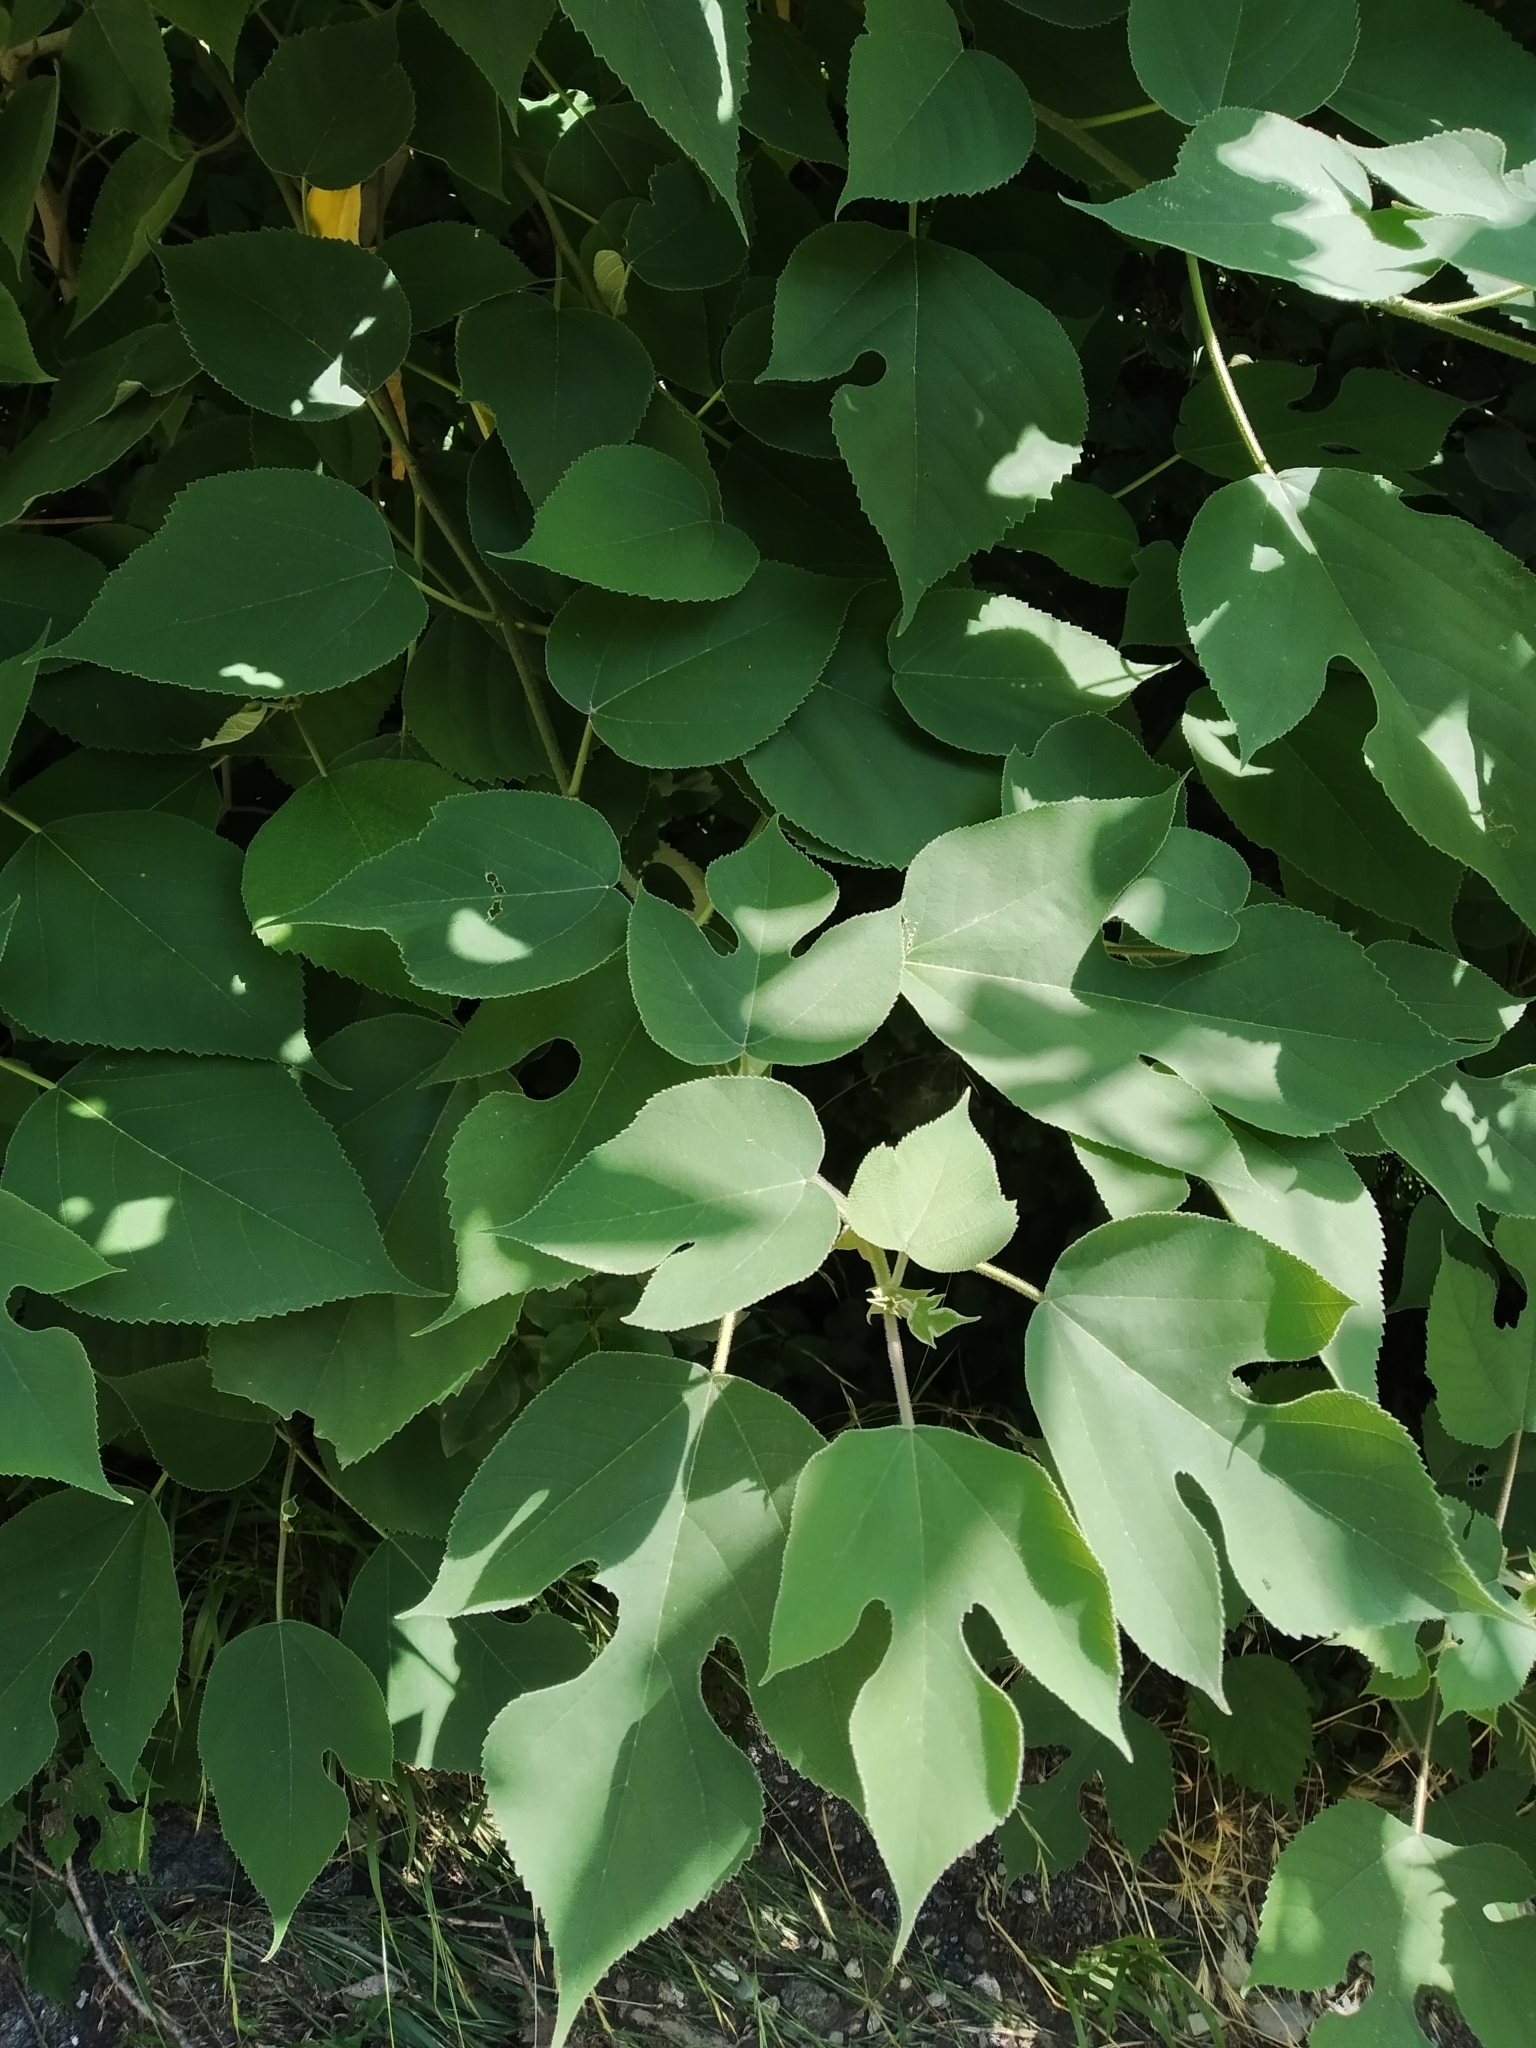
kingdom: Plantae
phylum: Tracheophyta
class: Magnoliopsida
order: Rosales
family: Moraceae
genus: Broussonetia
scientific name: Broussonetia papyrifera
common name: Paper mulberry
